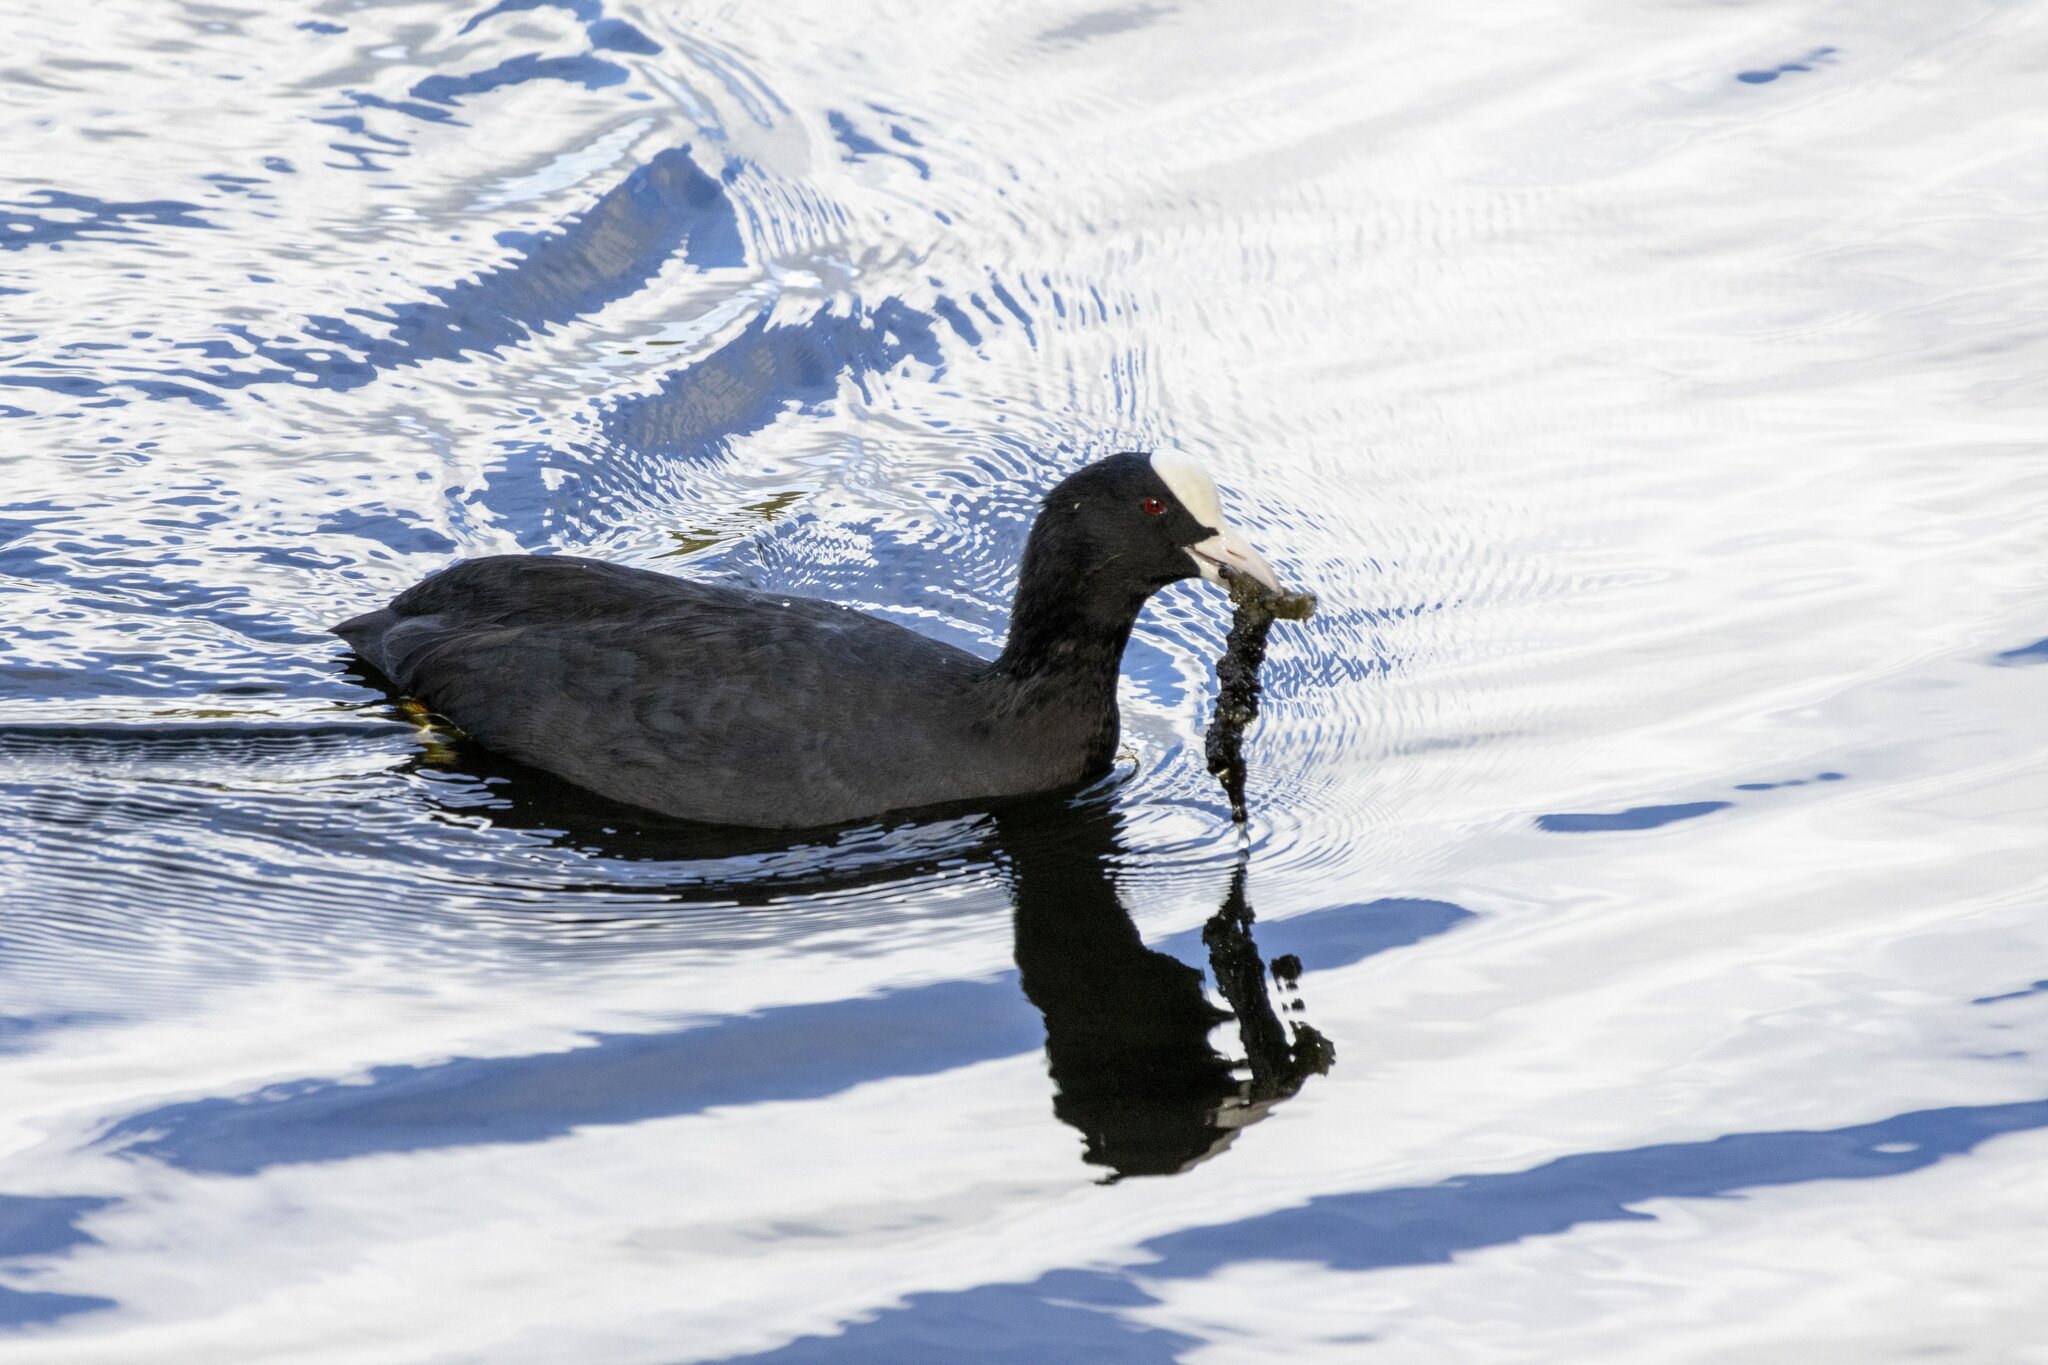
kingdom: Animalia
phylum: Chordata
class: Aves
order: Gruiformes
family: Rallidae
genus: Fulica
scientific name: Fulica atra
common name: Eurasian coot
